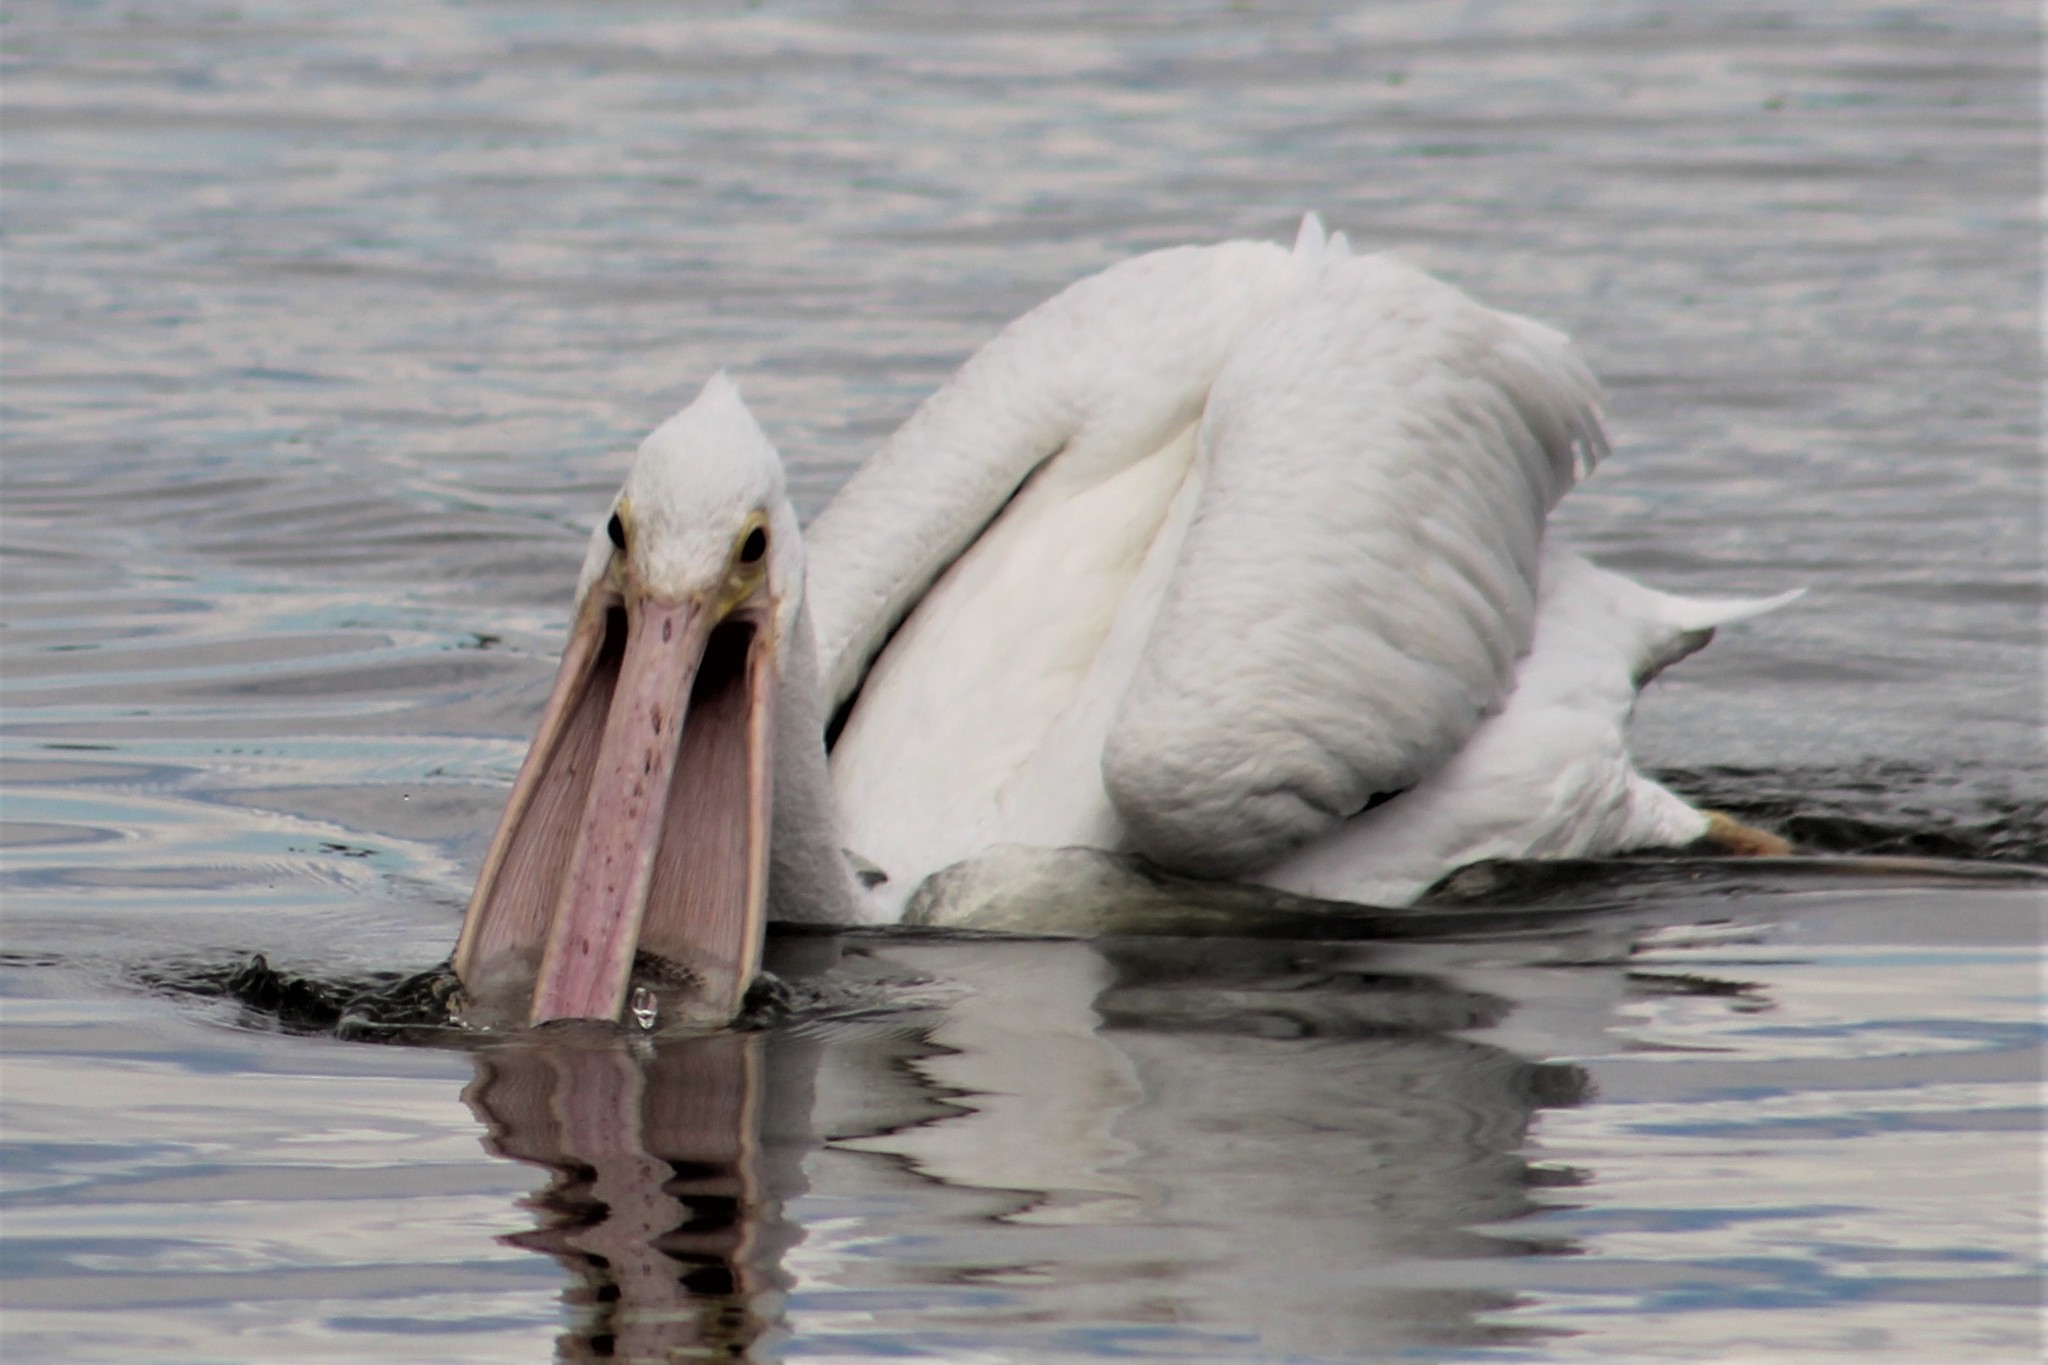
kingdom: Animalia
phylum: Chordata
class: Aves
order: Pelecaniformes
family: Pelecanidae
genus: Pelecanus
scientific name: Pelecanus erythrorhynchos
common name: American white pelican
